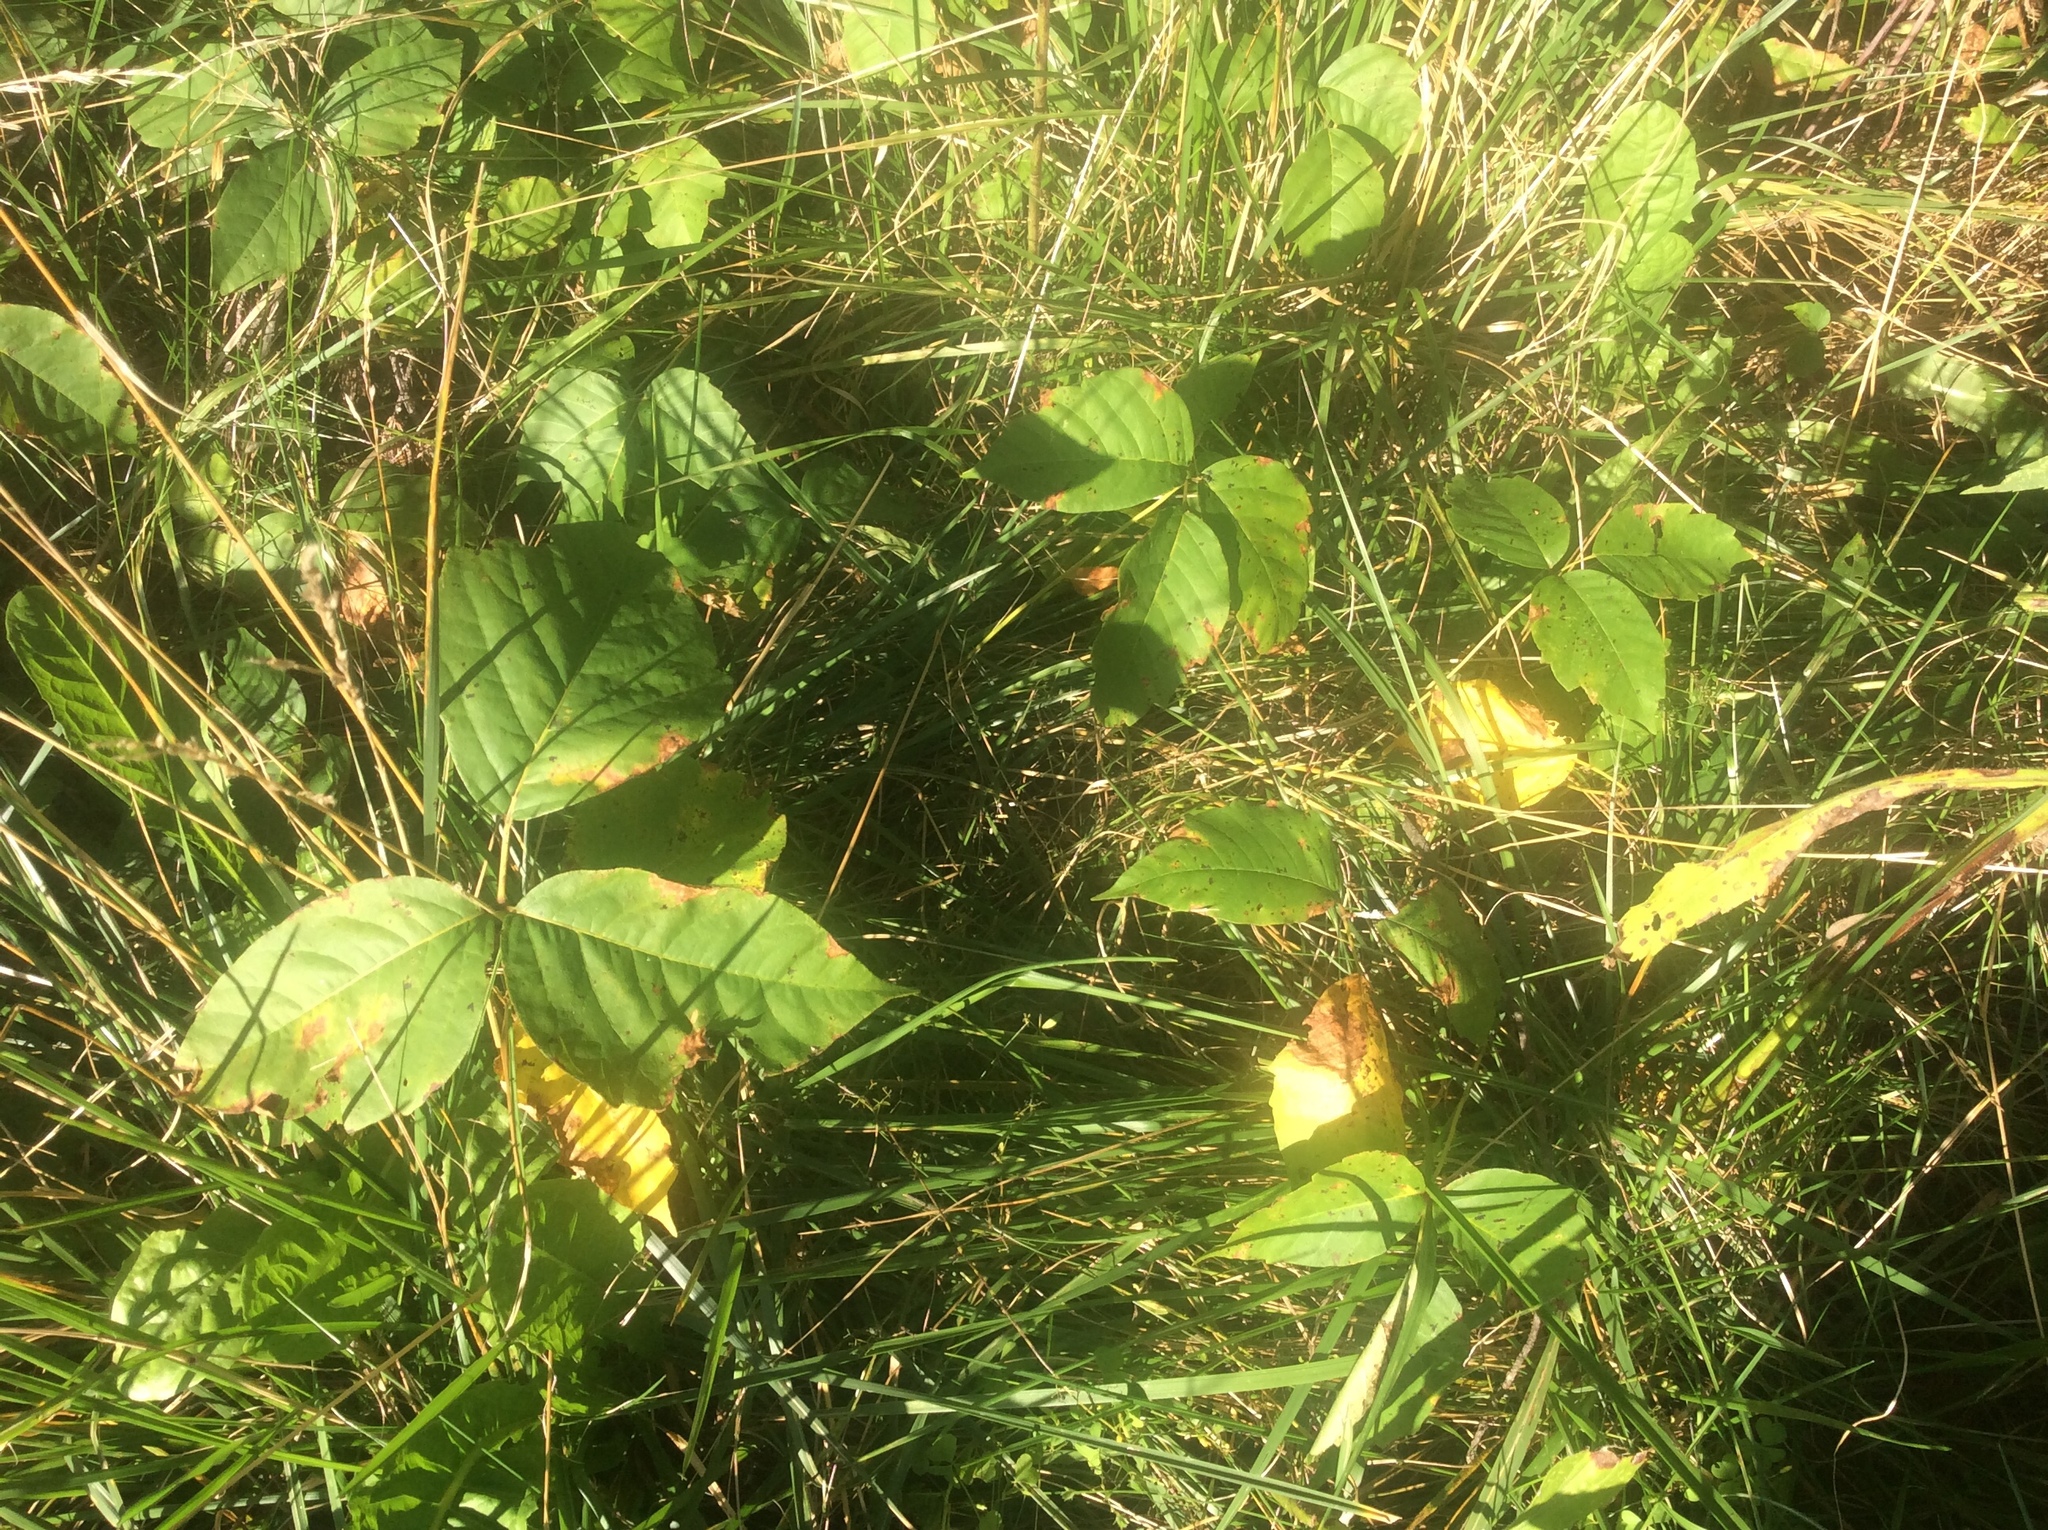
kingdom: Plantae
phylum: Tracheophyta
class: Magnoliopsida
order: Sapindales
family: Anacardiaceae
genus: Toxicodendron
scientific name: Toxicodendron radicans
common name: Poison ivy
